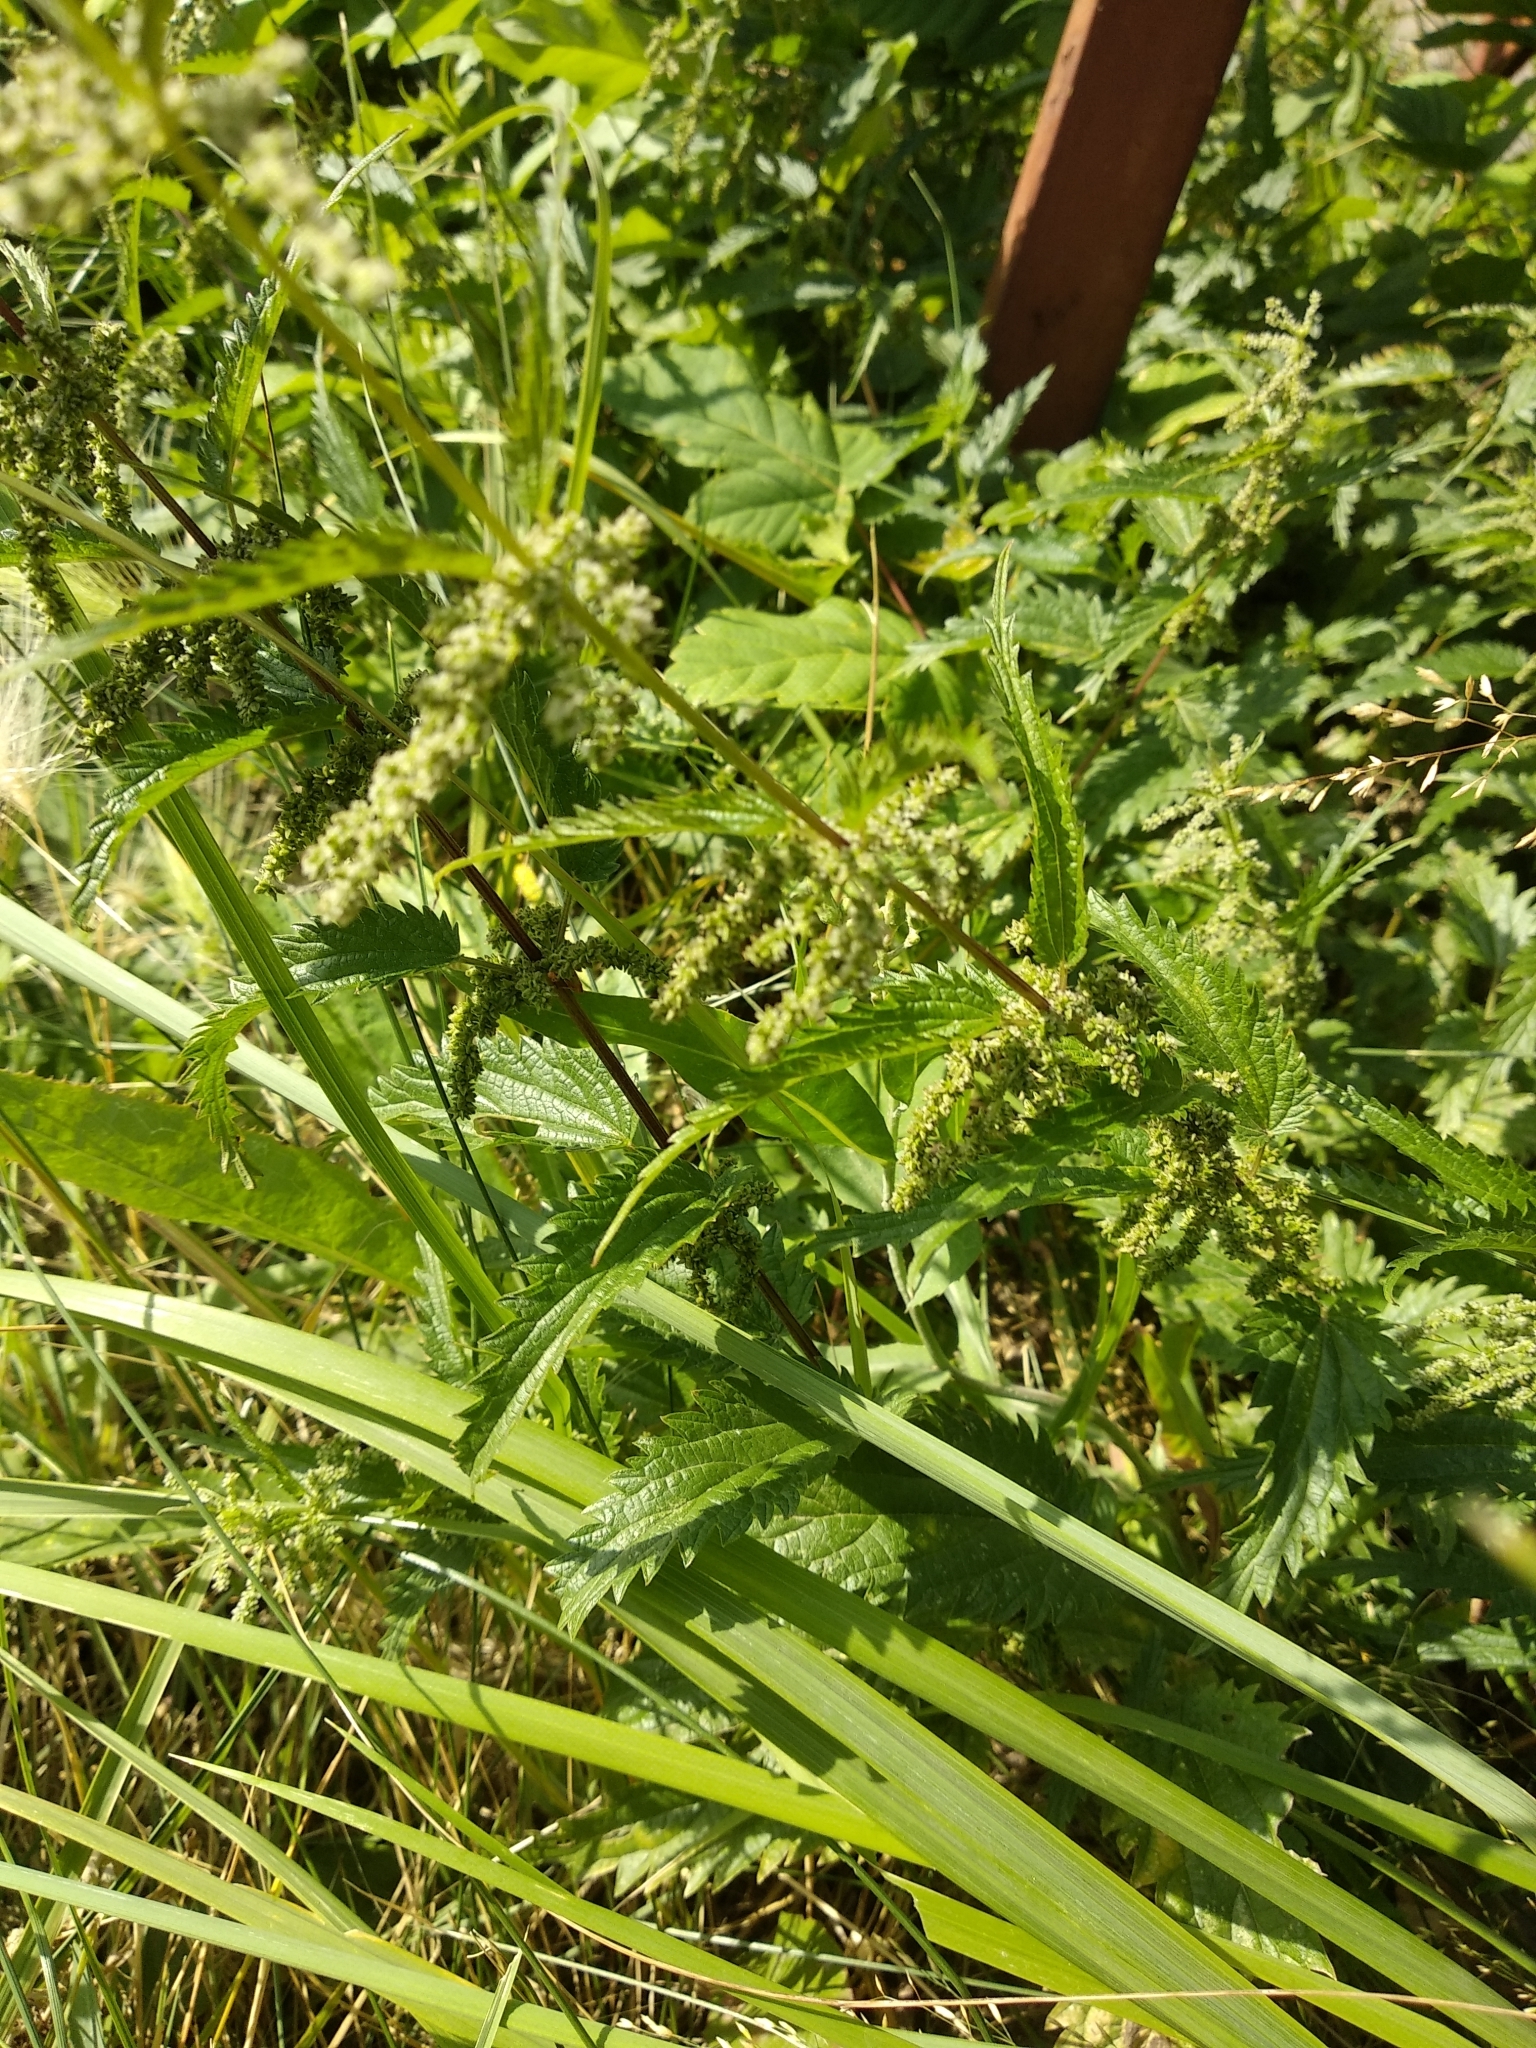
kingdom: Plantae
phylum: Tracheophyta
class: Magnoliopsida
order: Rosales
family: Urticaceae
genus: Urtica
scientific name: Urtica dioica
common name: Common nettle
